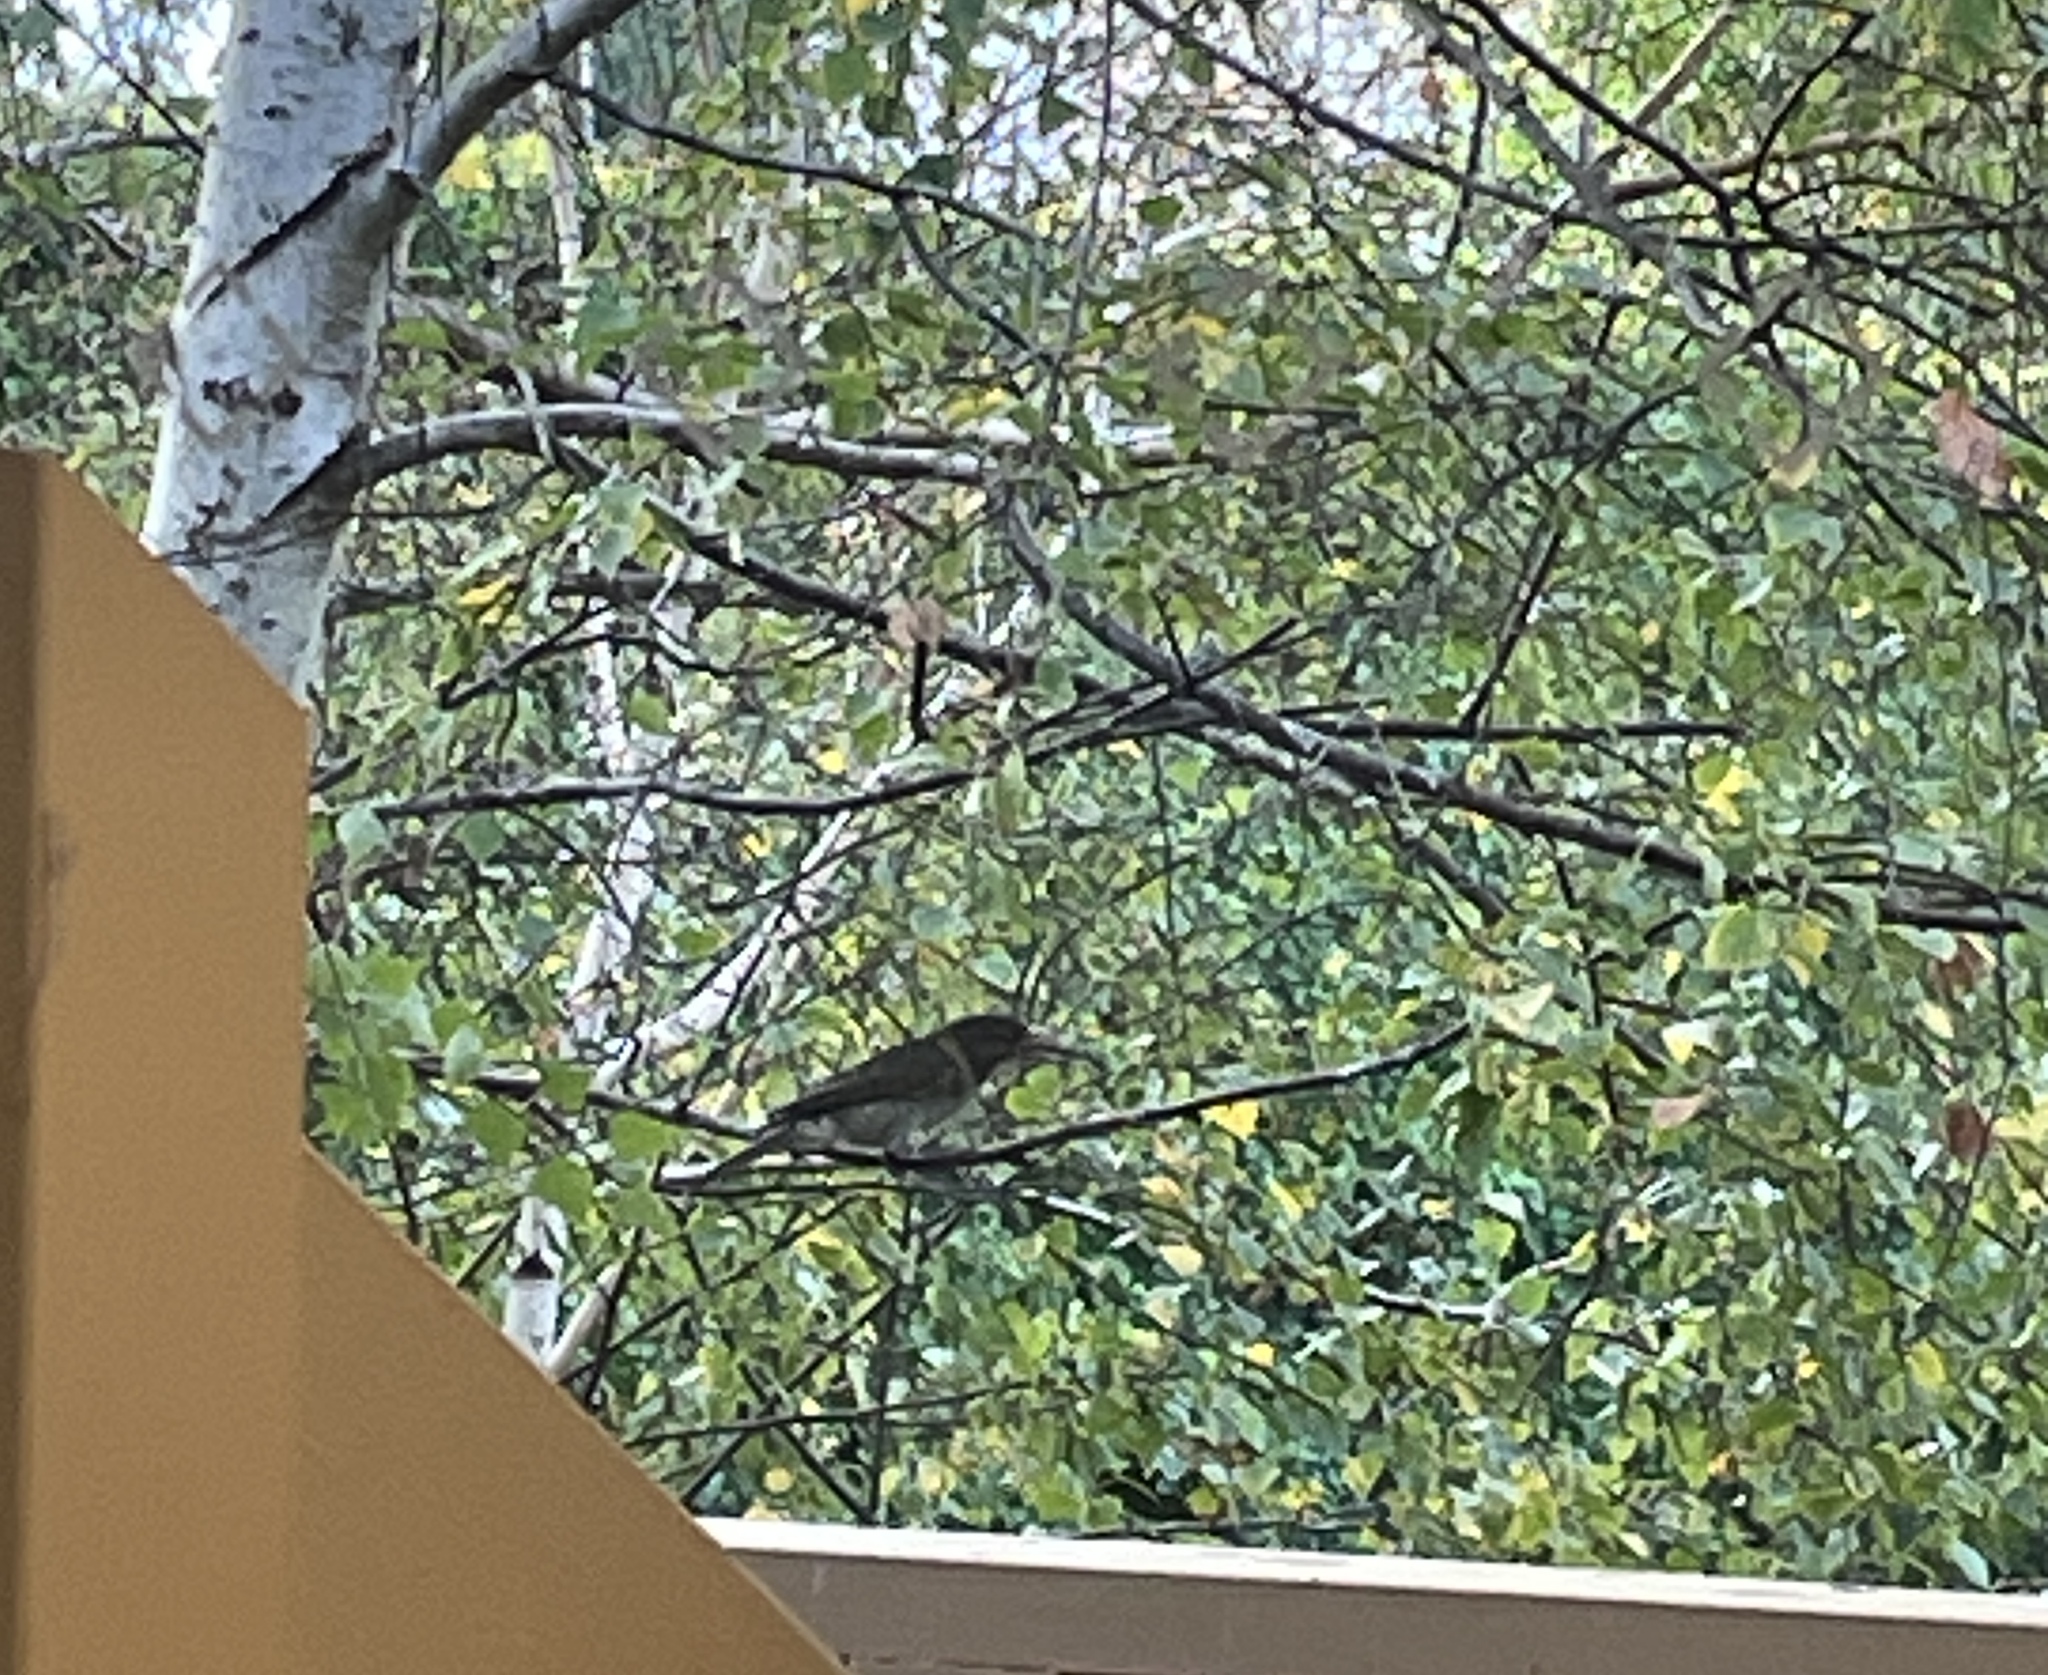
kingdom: Animalia
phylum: Chordata
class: Aves
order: Passeriformes
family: Cracticidae
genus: Cracticus
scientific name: Cracticus torquatus
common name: Grey butcherbird
